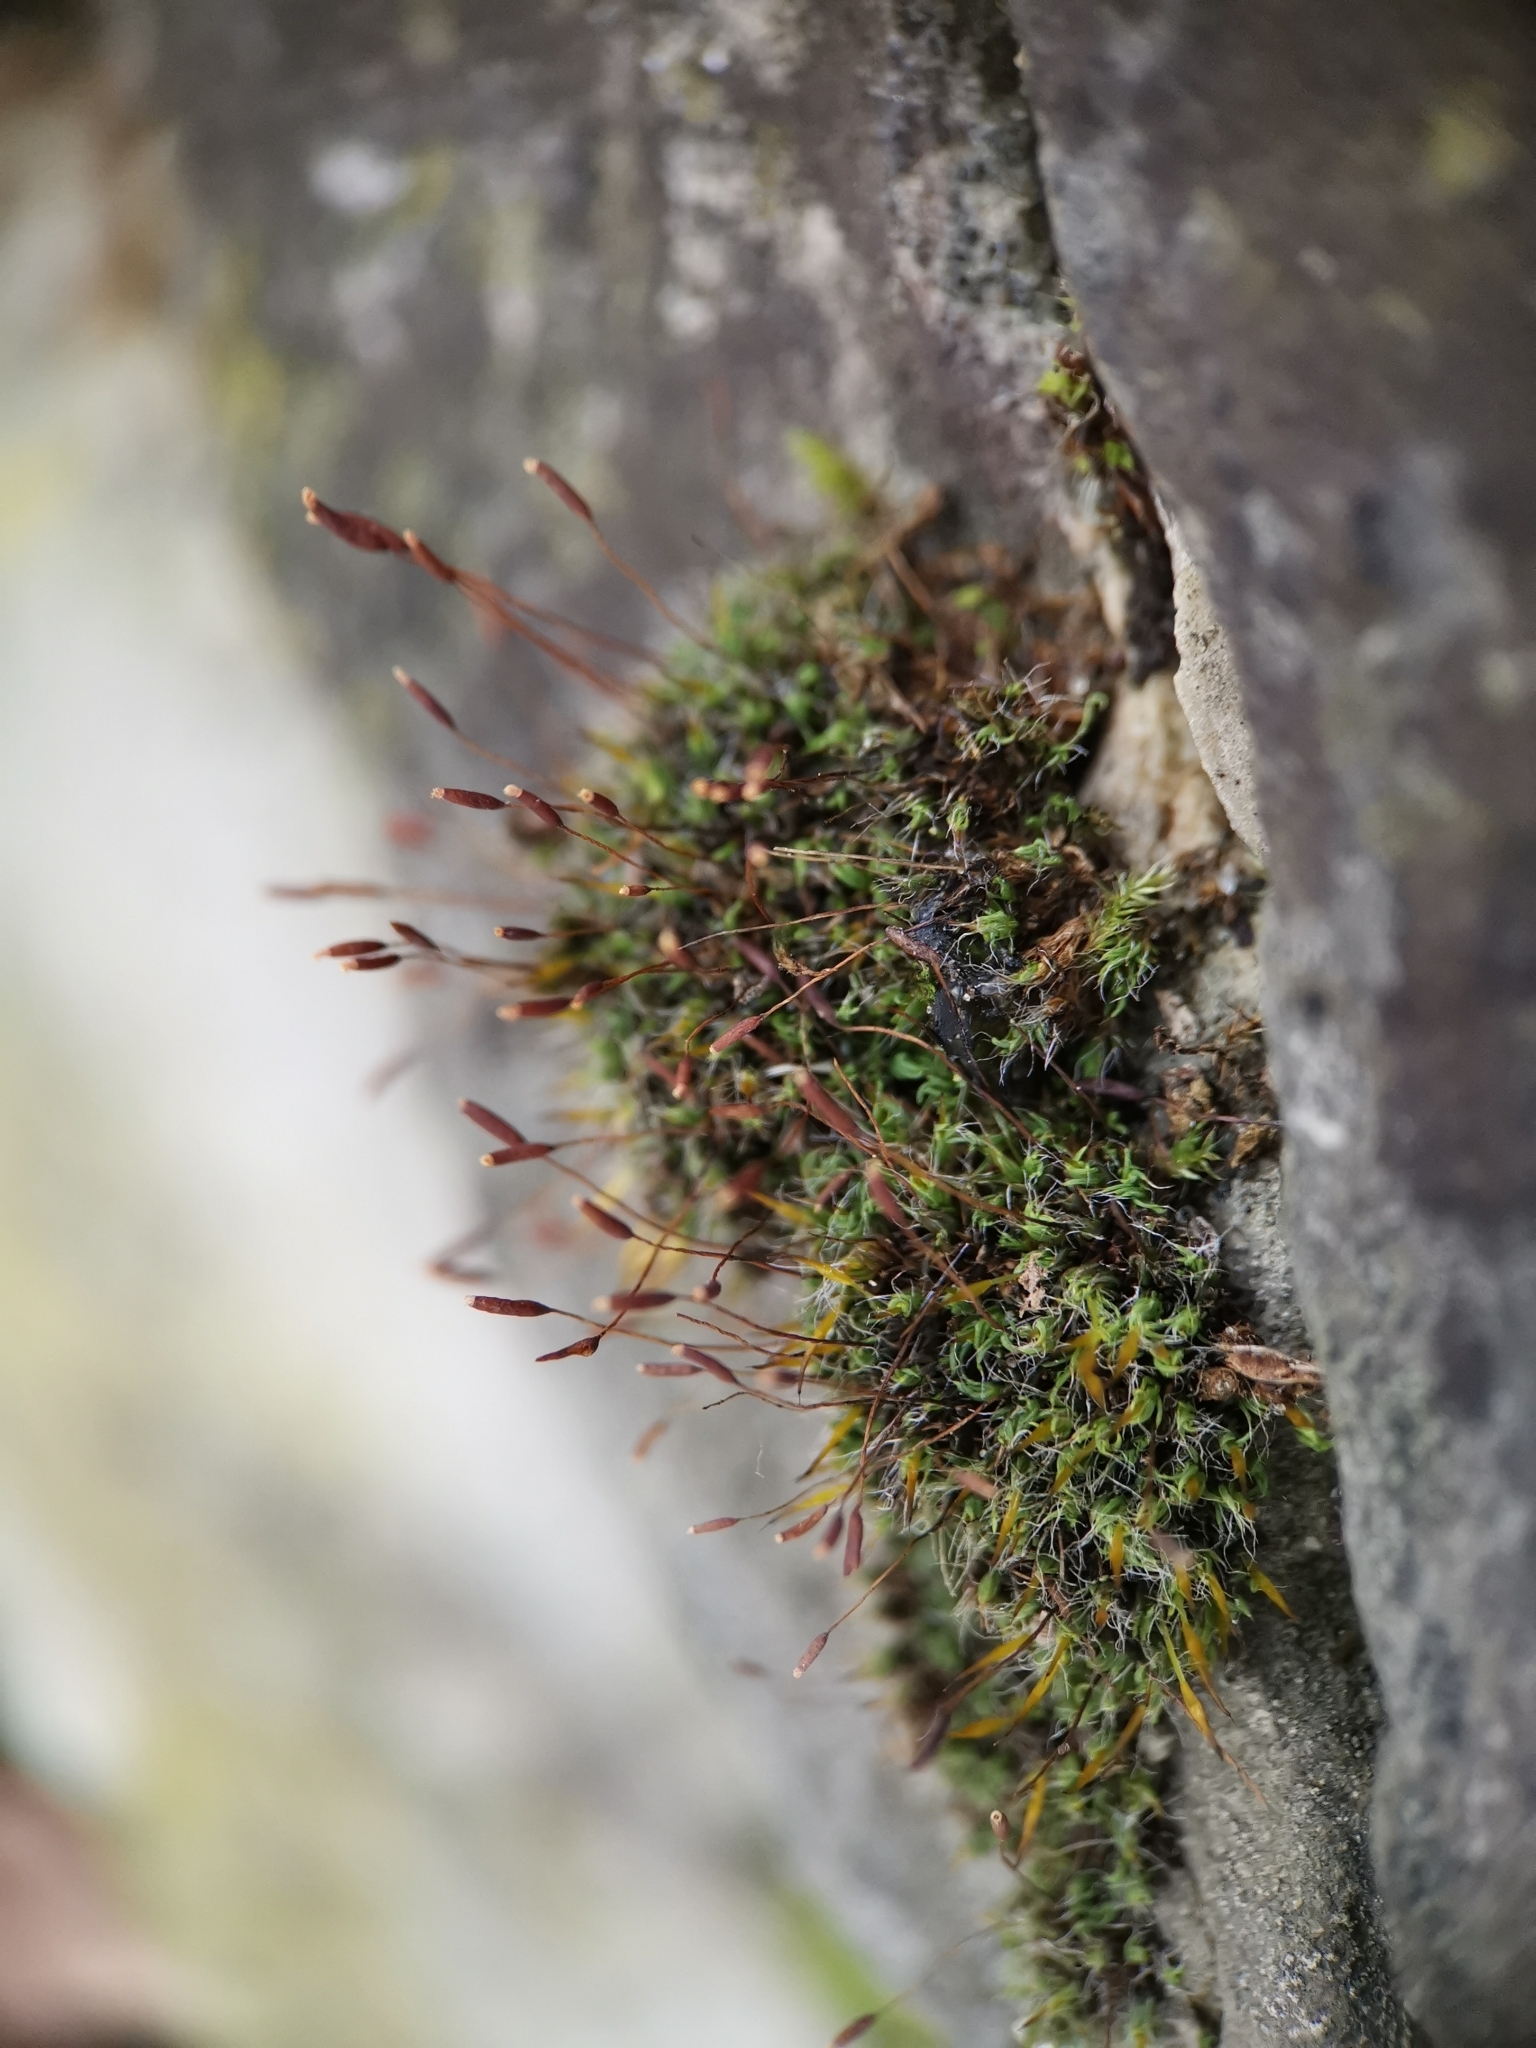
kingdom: Plantae
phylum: Bryophyta
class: Bryopsida
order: Pottiales
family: Pottiaceae
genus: Tortula
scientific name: Tortula muralis
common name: Wall screw-moss
